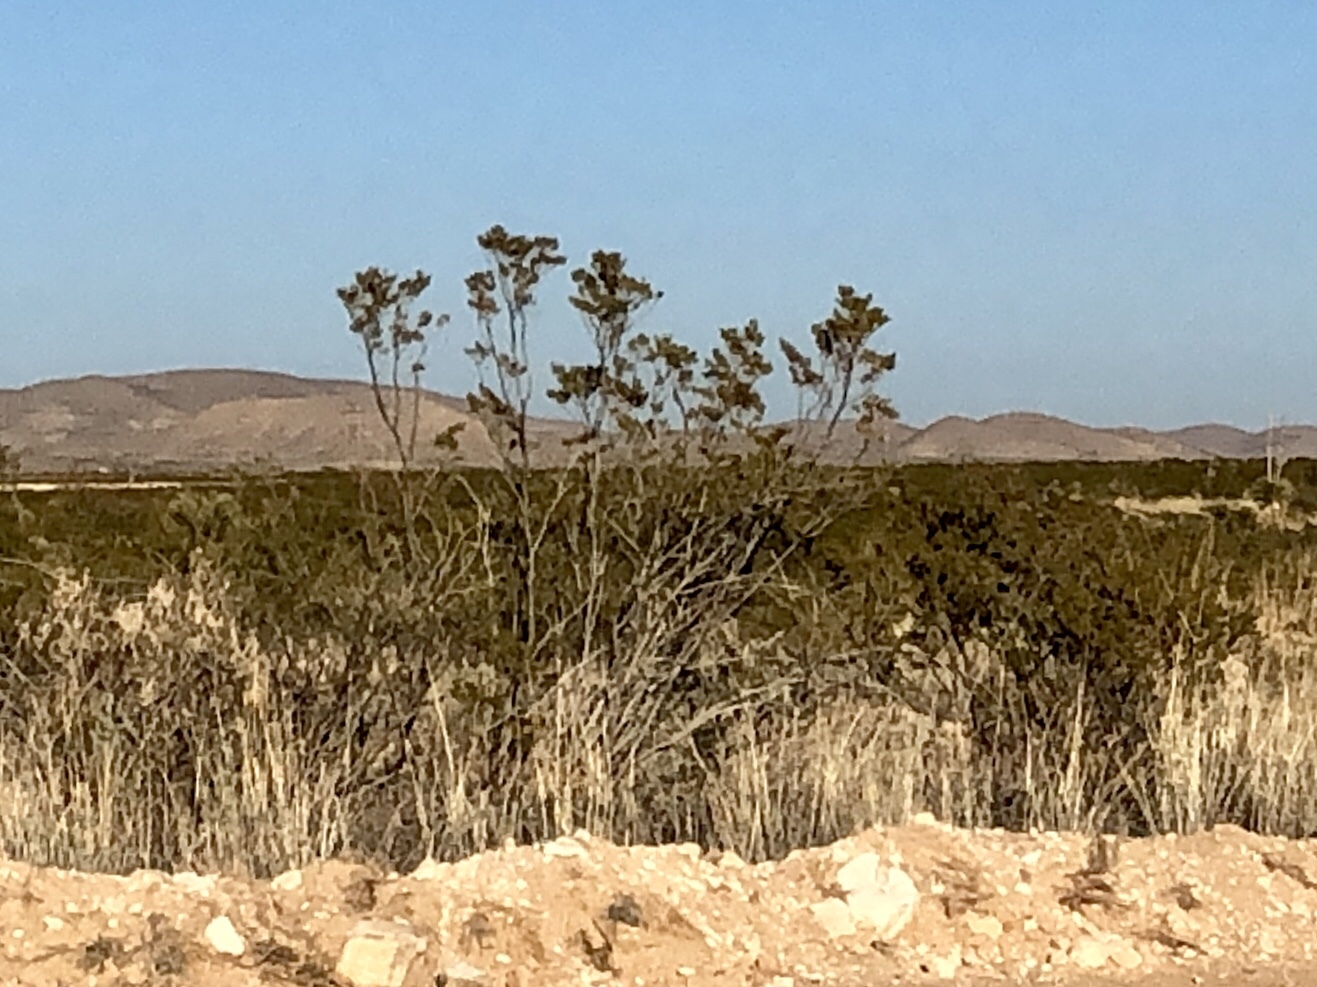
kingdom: Plantae
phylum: Tracheophyta
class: Magnoliopsida
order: Zygophyllales
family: Zygophyllaceae
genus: Larrea
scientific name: Larrea tridentata
